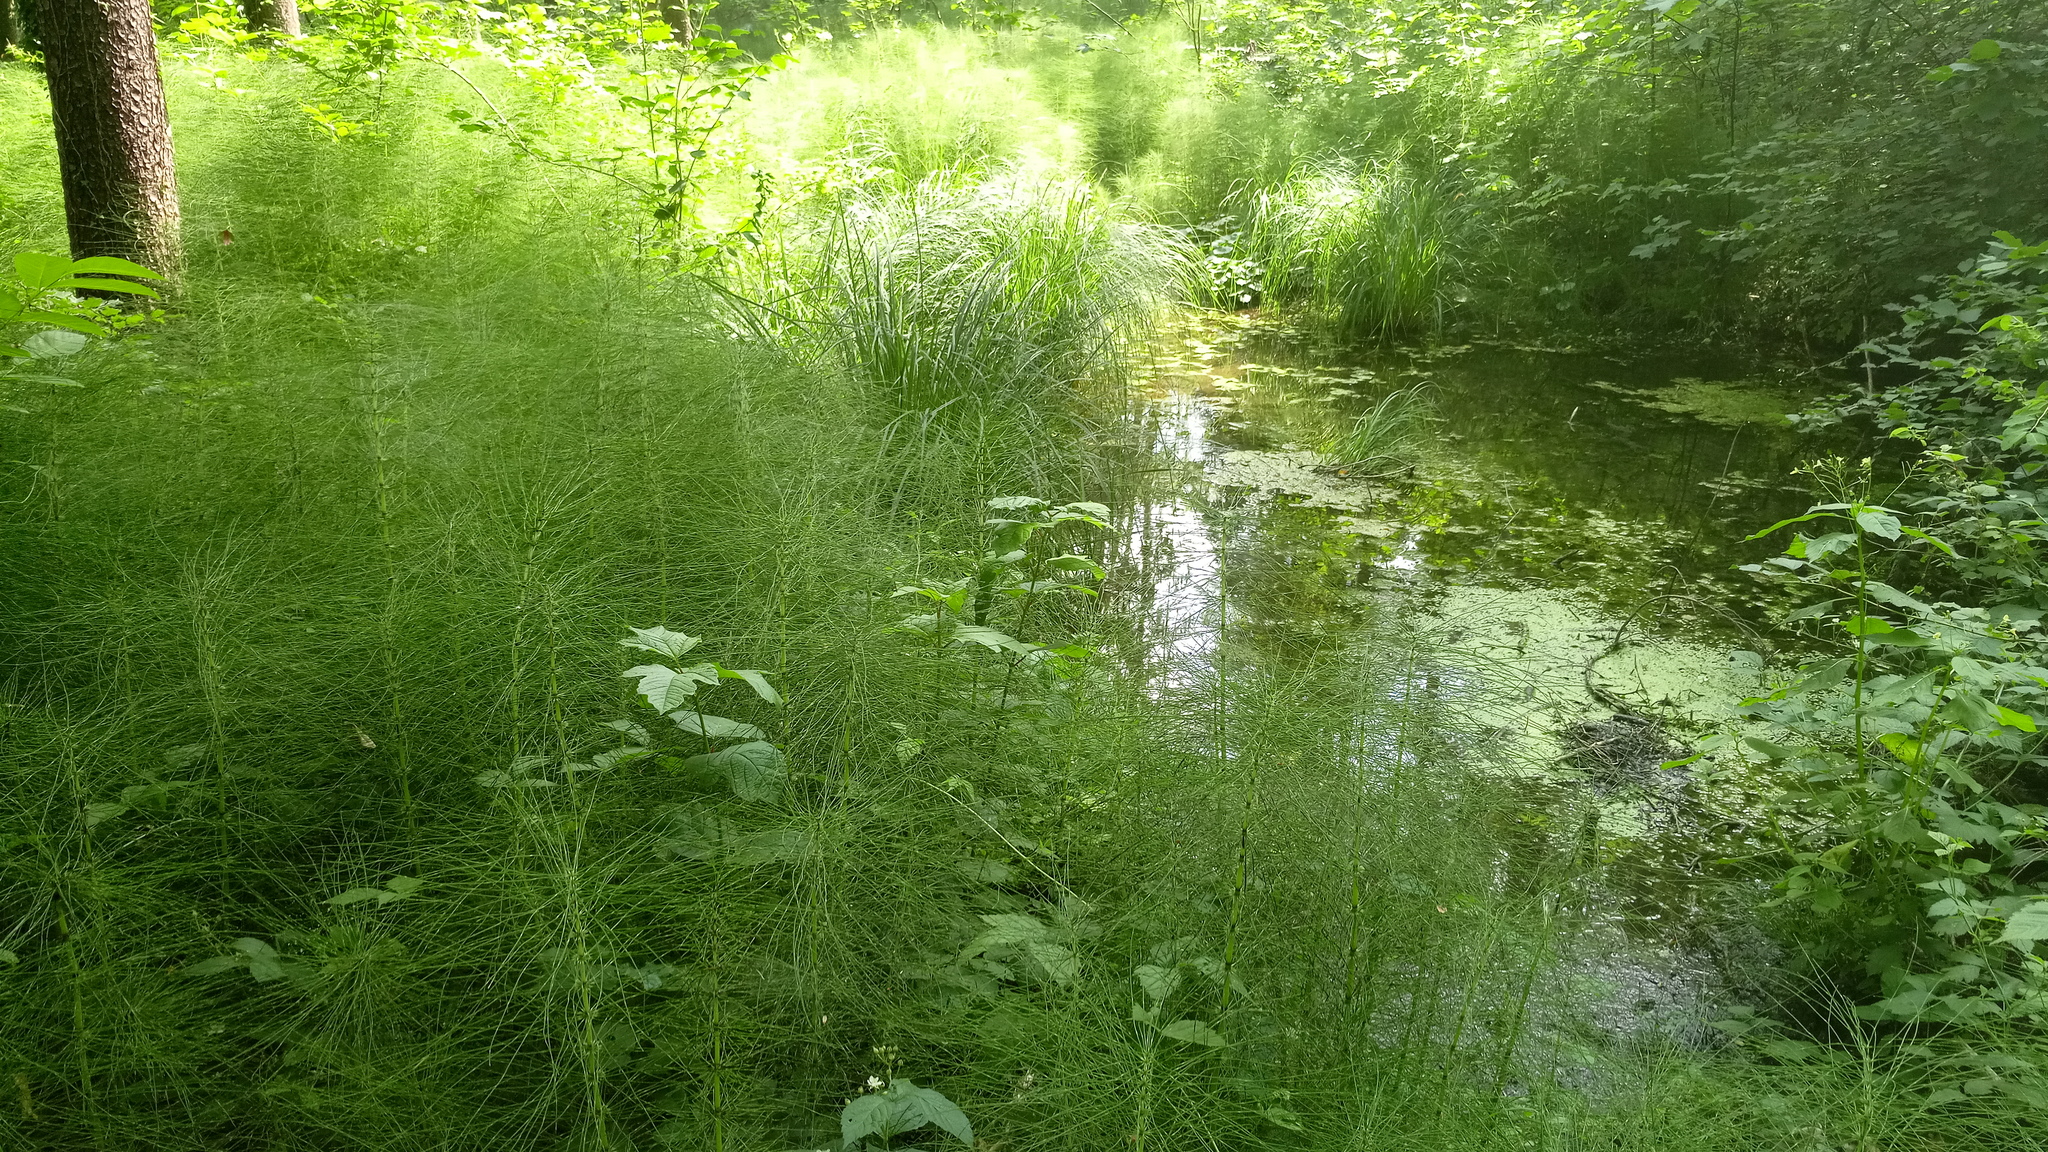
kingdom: Plantae
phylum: Tracheophyta
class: Polypodiopsida
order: Equisetales
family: Equisetaceae
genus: Equisetum
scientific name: Equisetum telmateia
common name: Great horsetail
